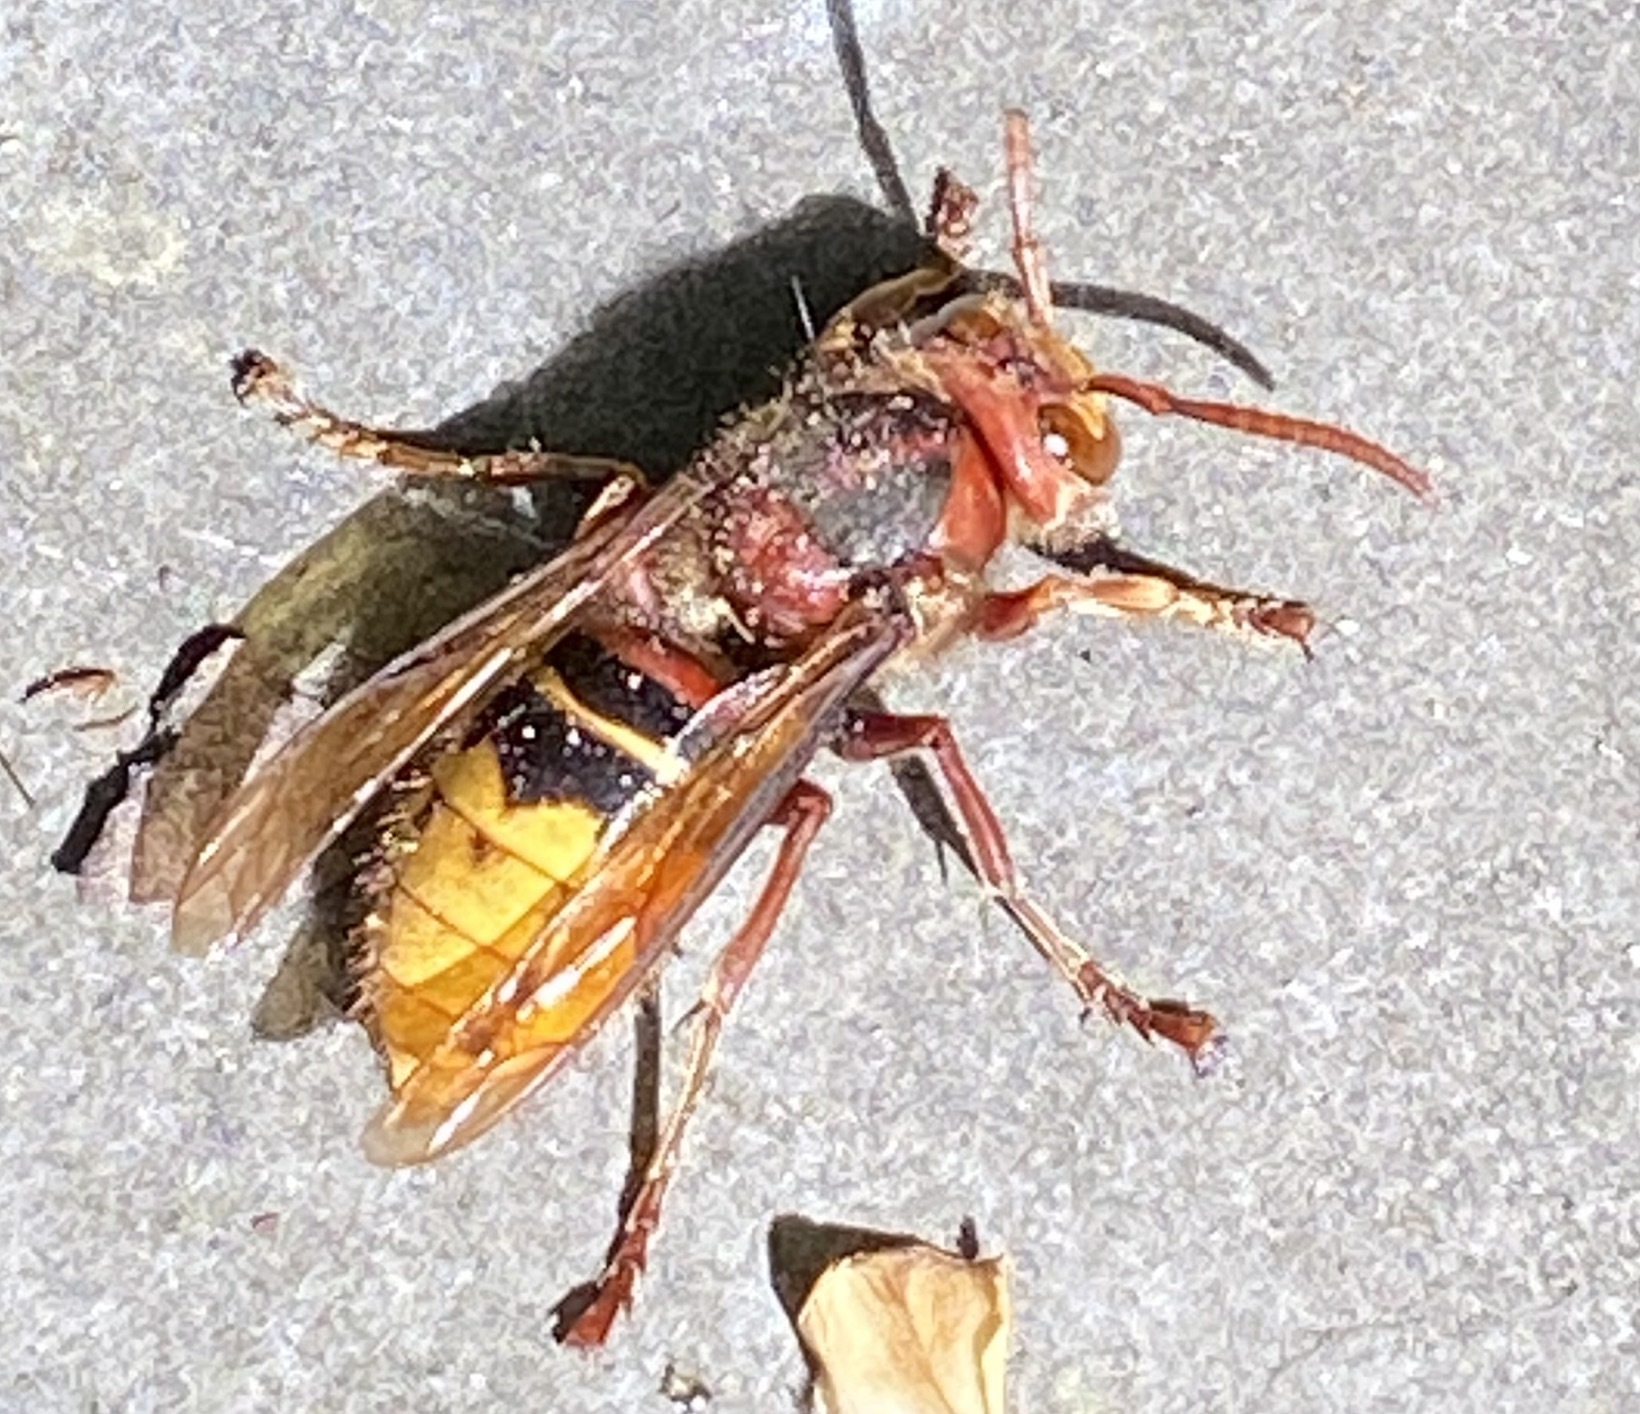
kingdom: Animalia
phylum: Arthropoda
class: Insecta
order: Hymenoptera
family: Vespidae
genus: Vespa
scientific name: Vespa crabro
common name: Hornet
